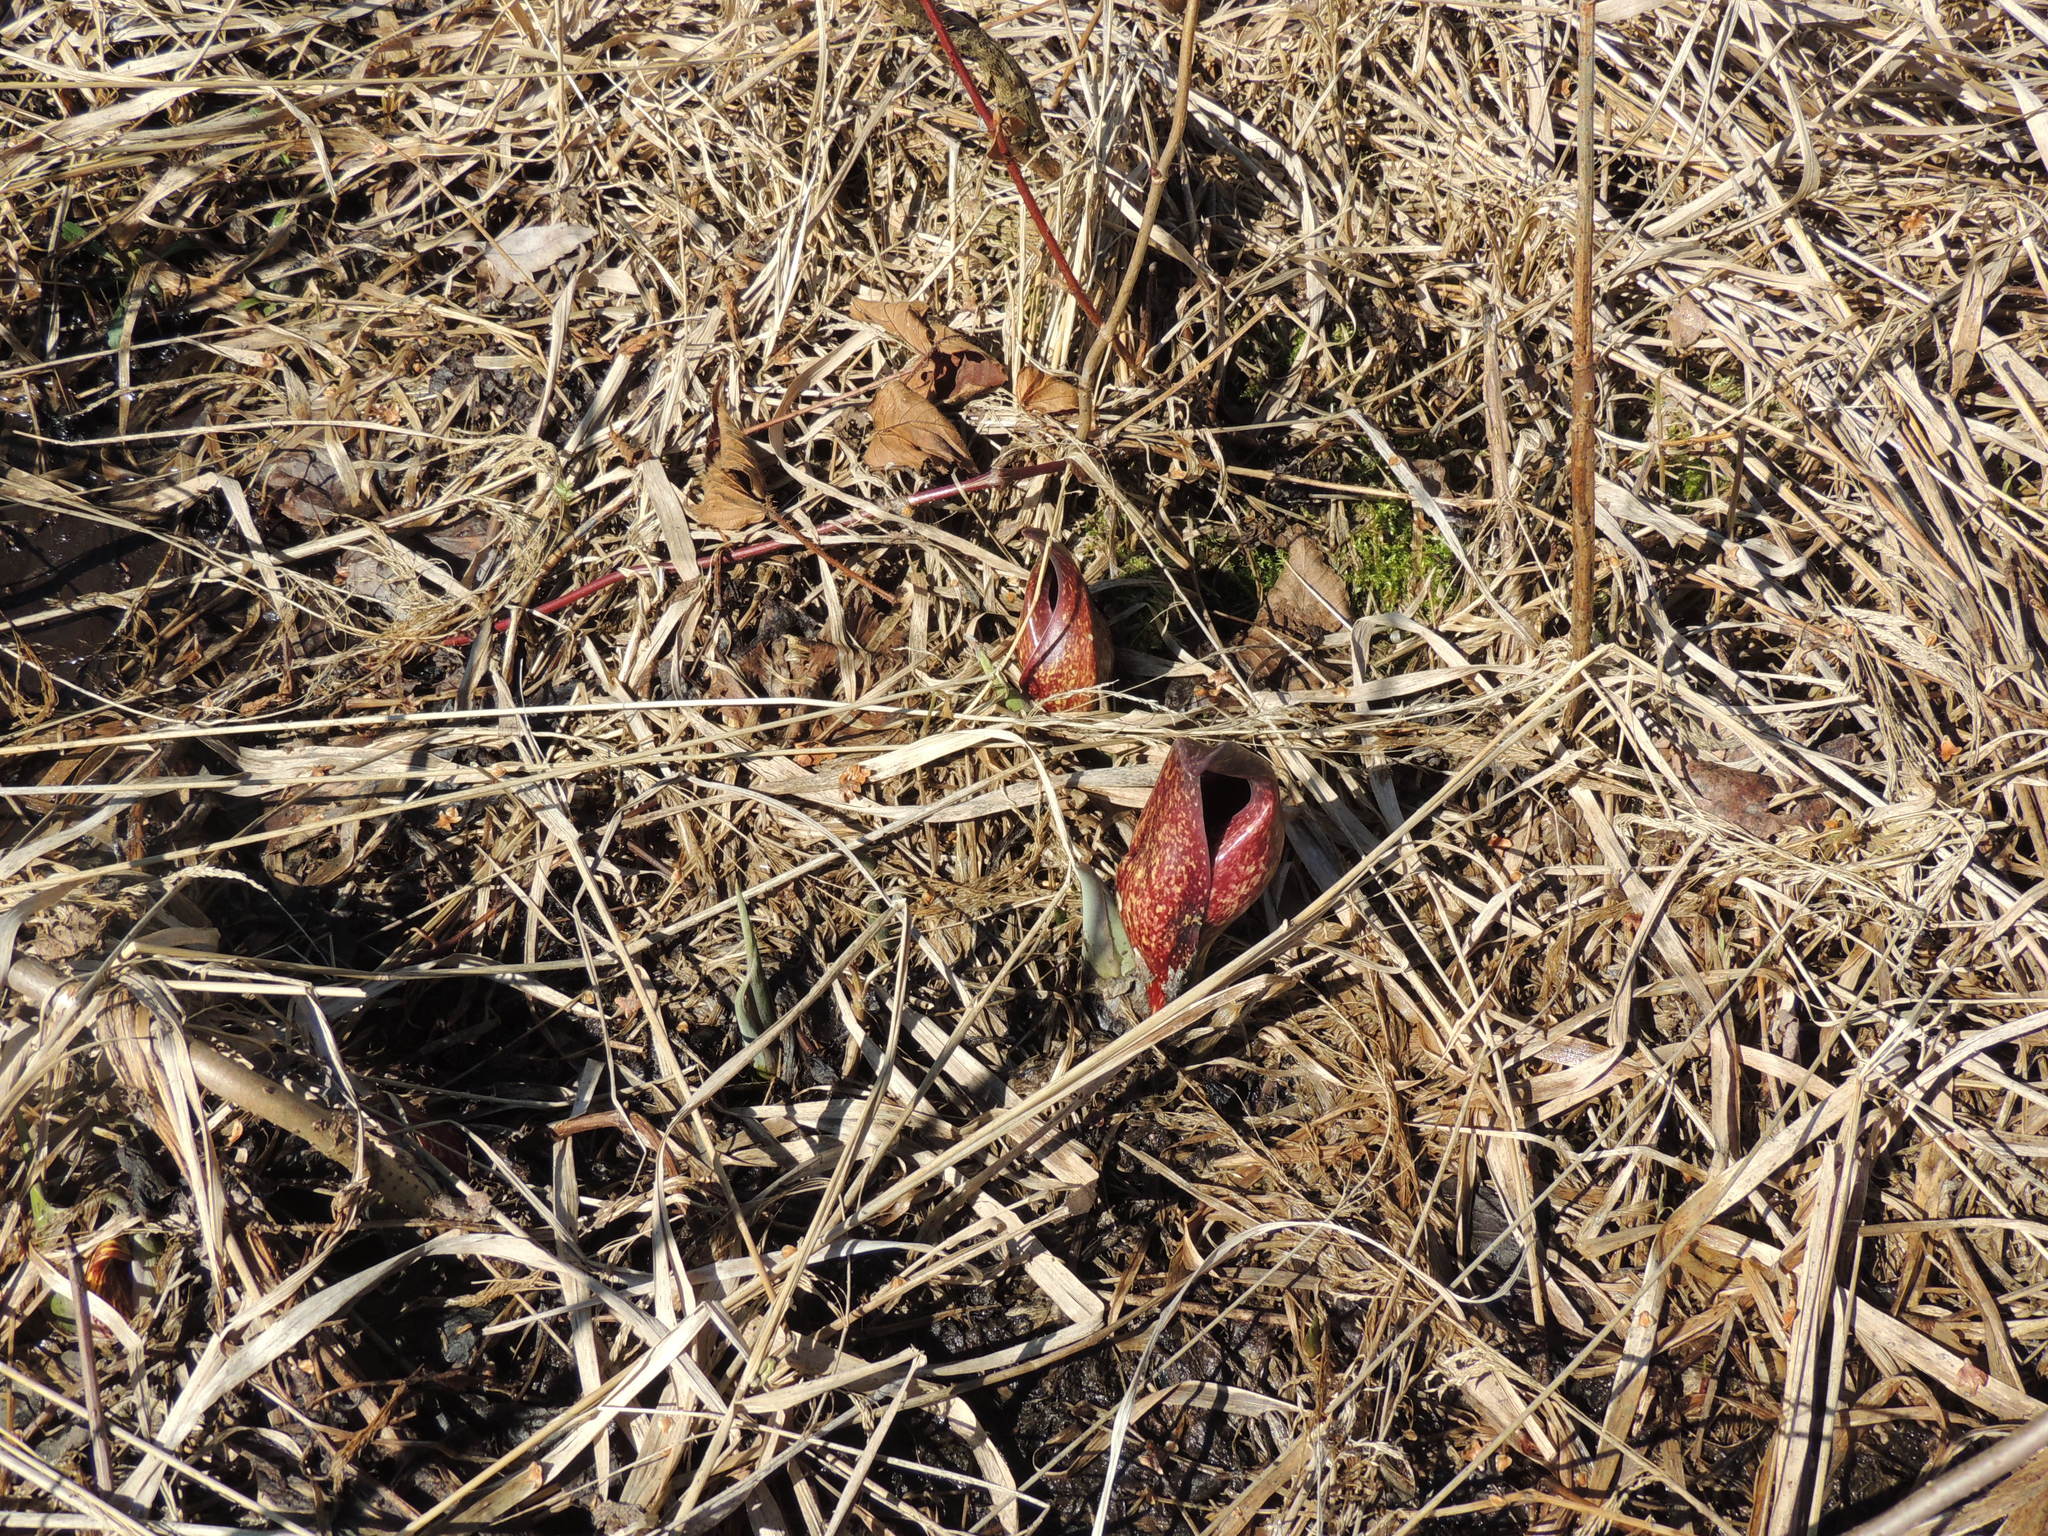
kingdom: Plantae
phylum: Tracheophyta
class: Liliopsida
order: Alismatales
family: Araceae
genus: Symplocarpus
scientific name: Symplocarpus foetidus
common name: Eastern skunk cabbage
